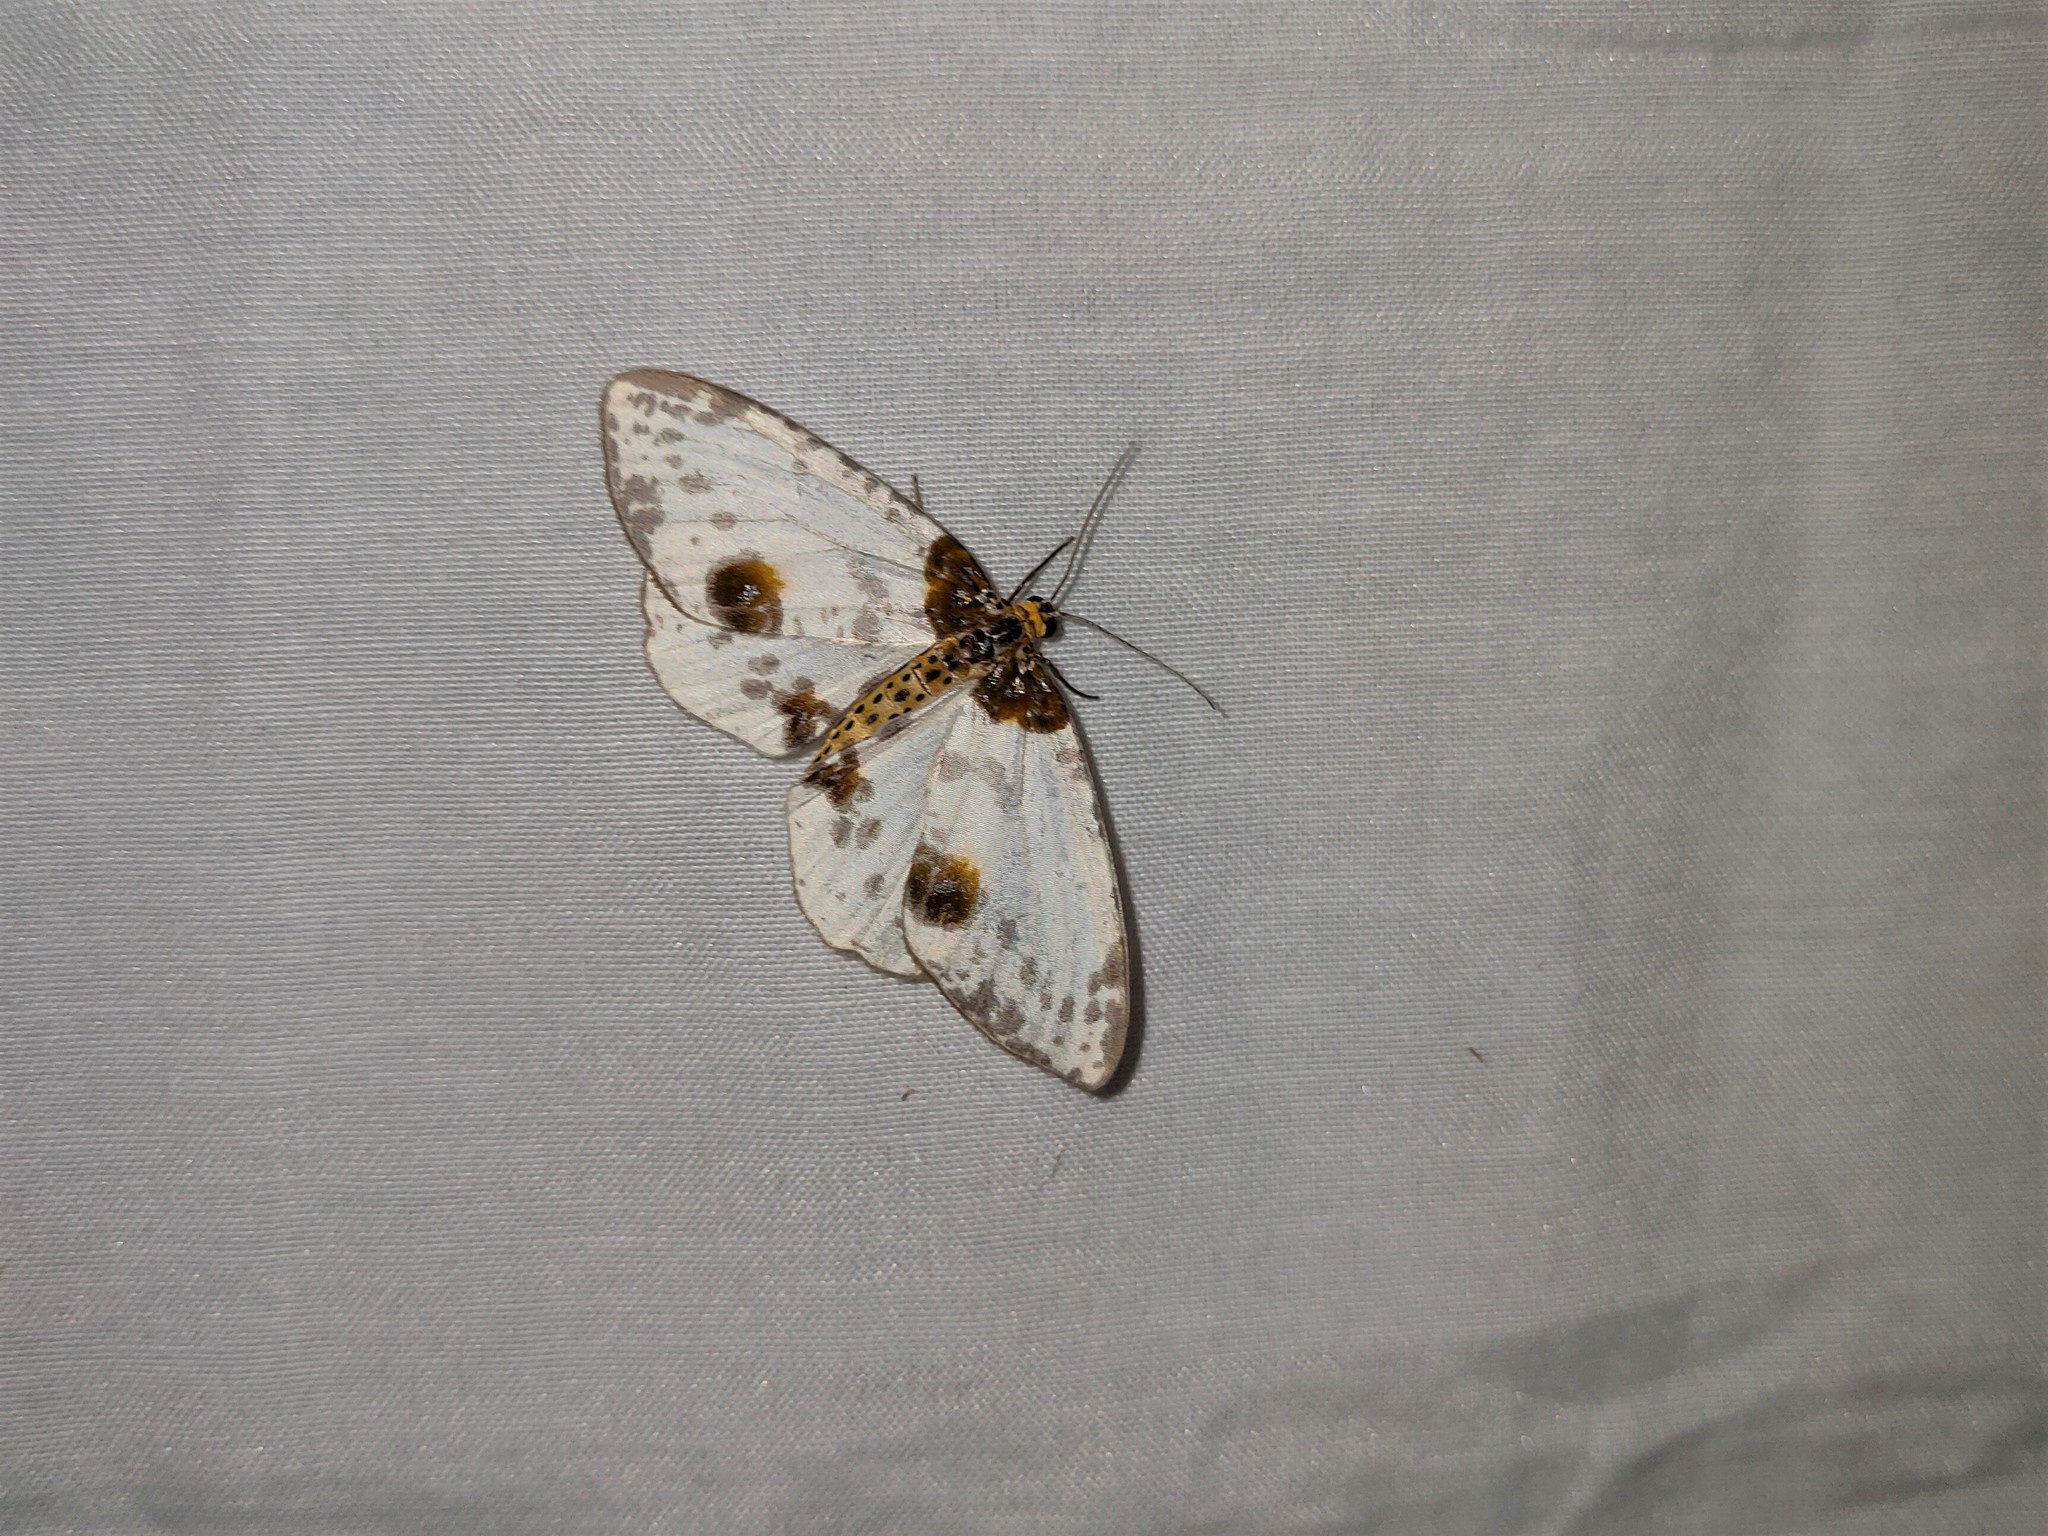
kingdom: Animalia
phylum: Arthropoda
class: Insecta
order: Lepidoptera
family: Geometridae
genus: Abraxas
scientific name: Abraxas persimplex
